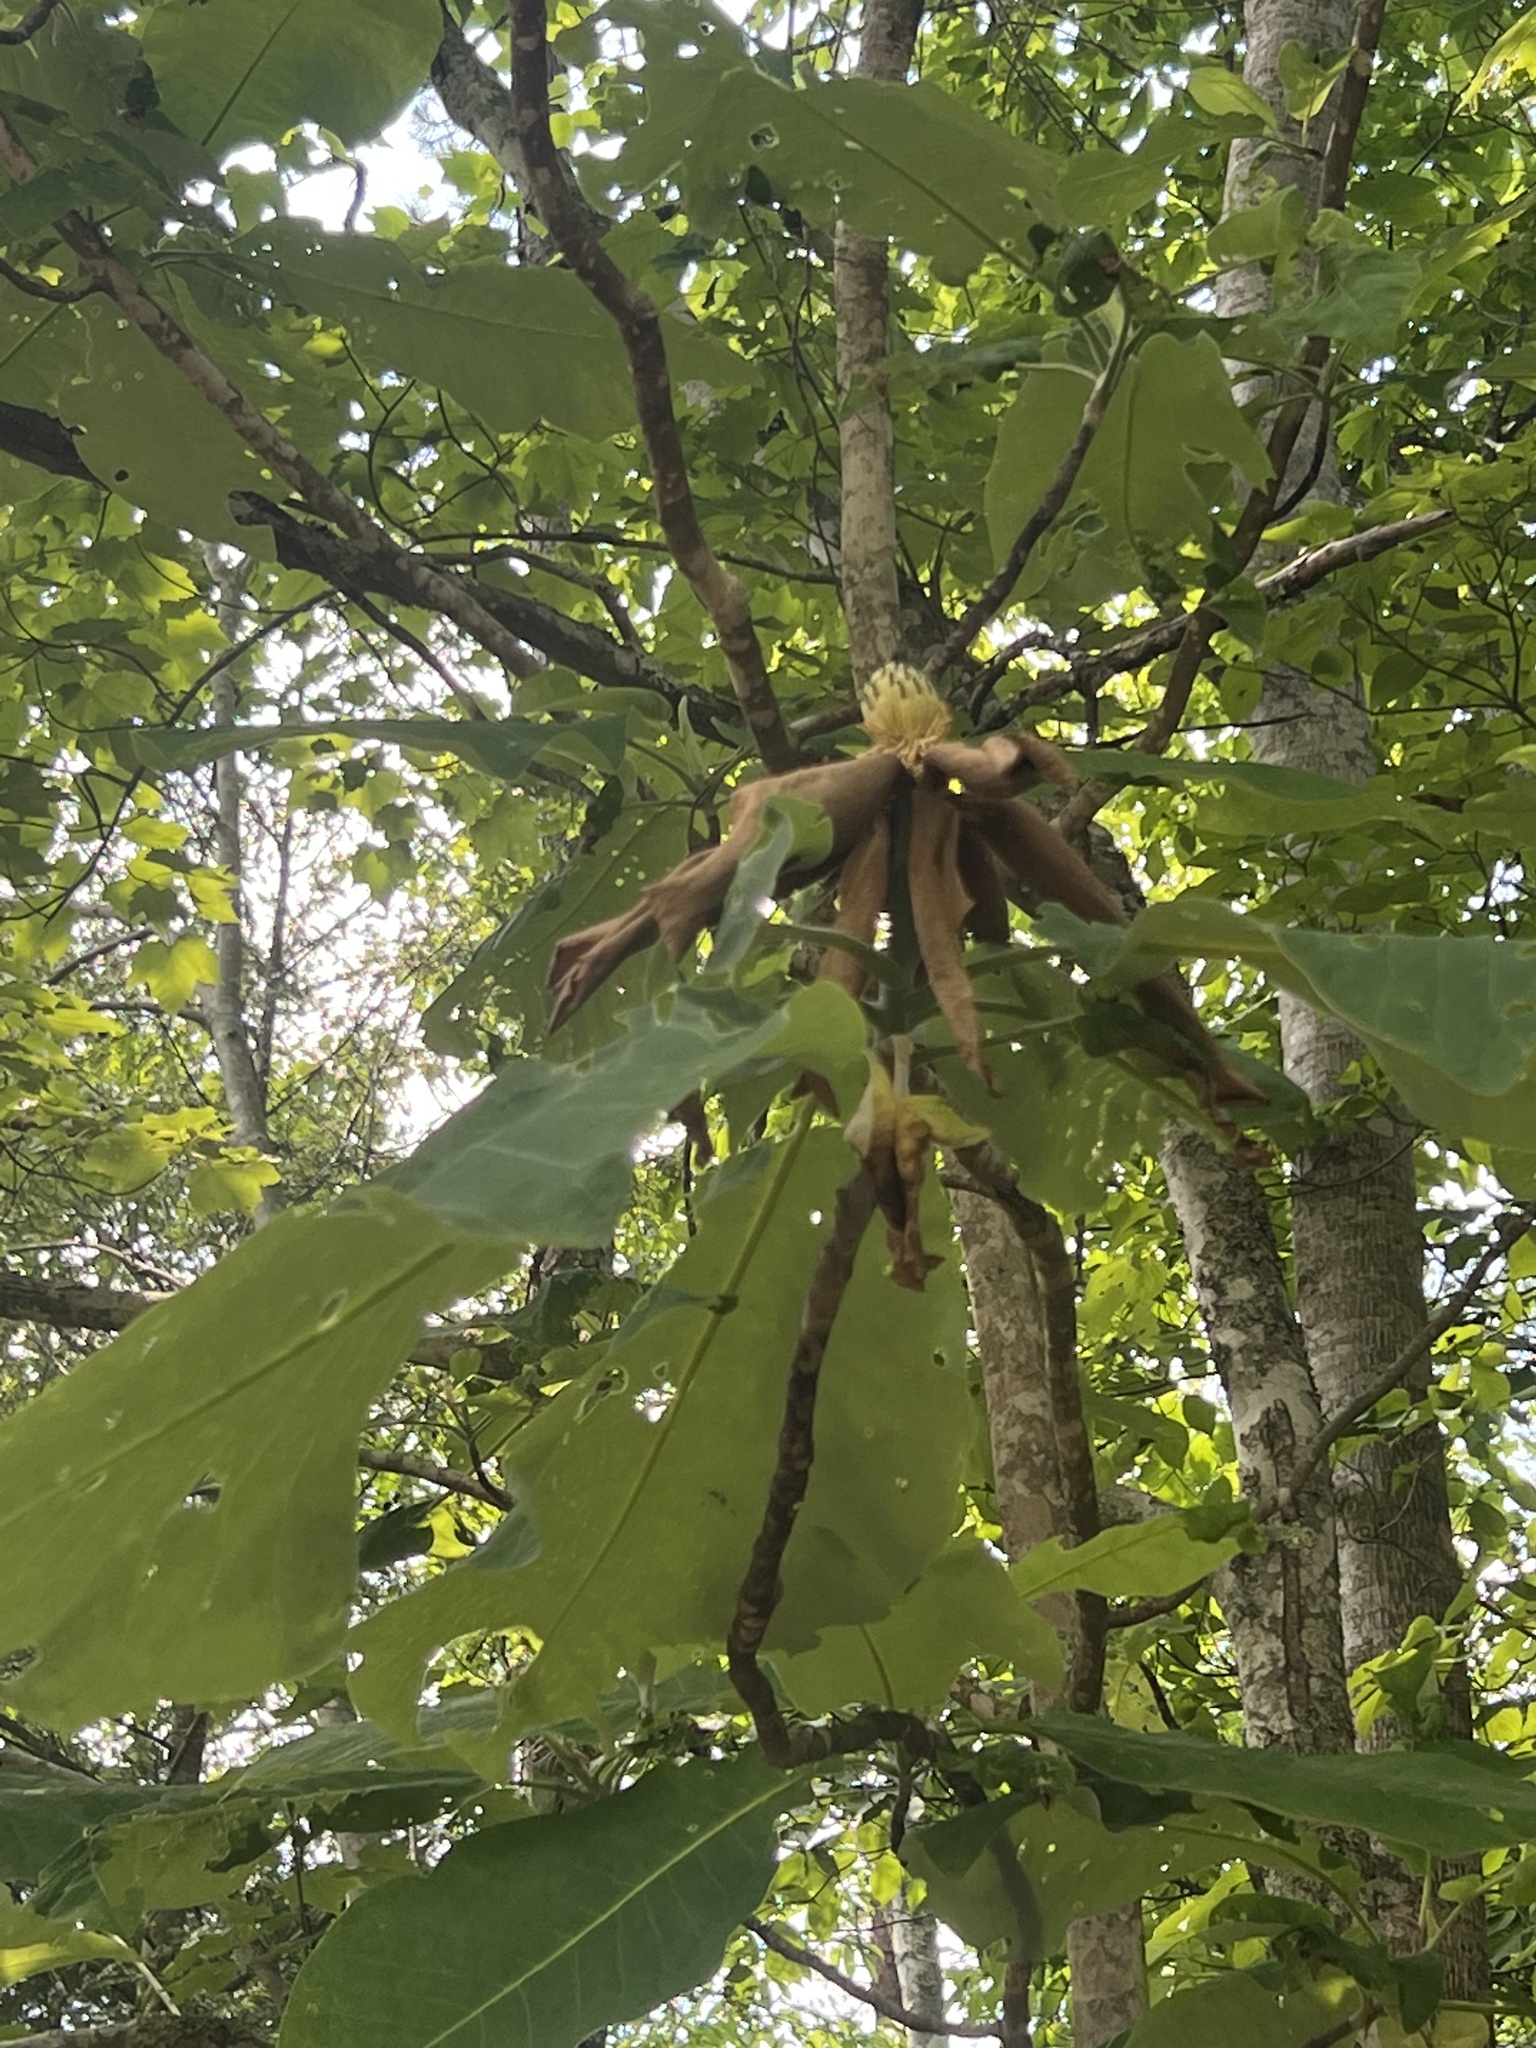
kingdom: Plantae
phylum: Tracheophyta
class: Magnoliopsida
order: Magnoliales
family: Magnoliaceae
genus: Magnolia
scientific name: Magnolia macrophylla
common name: Big-leaf magnolia
